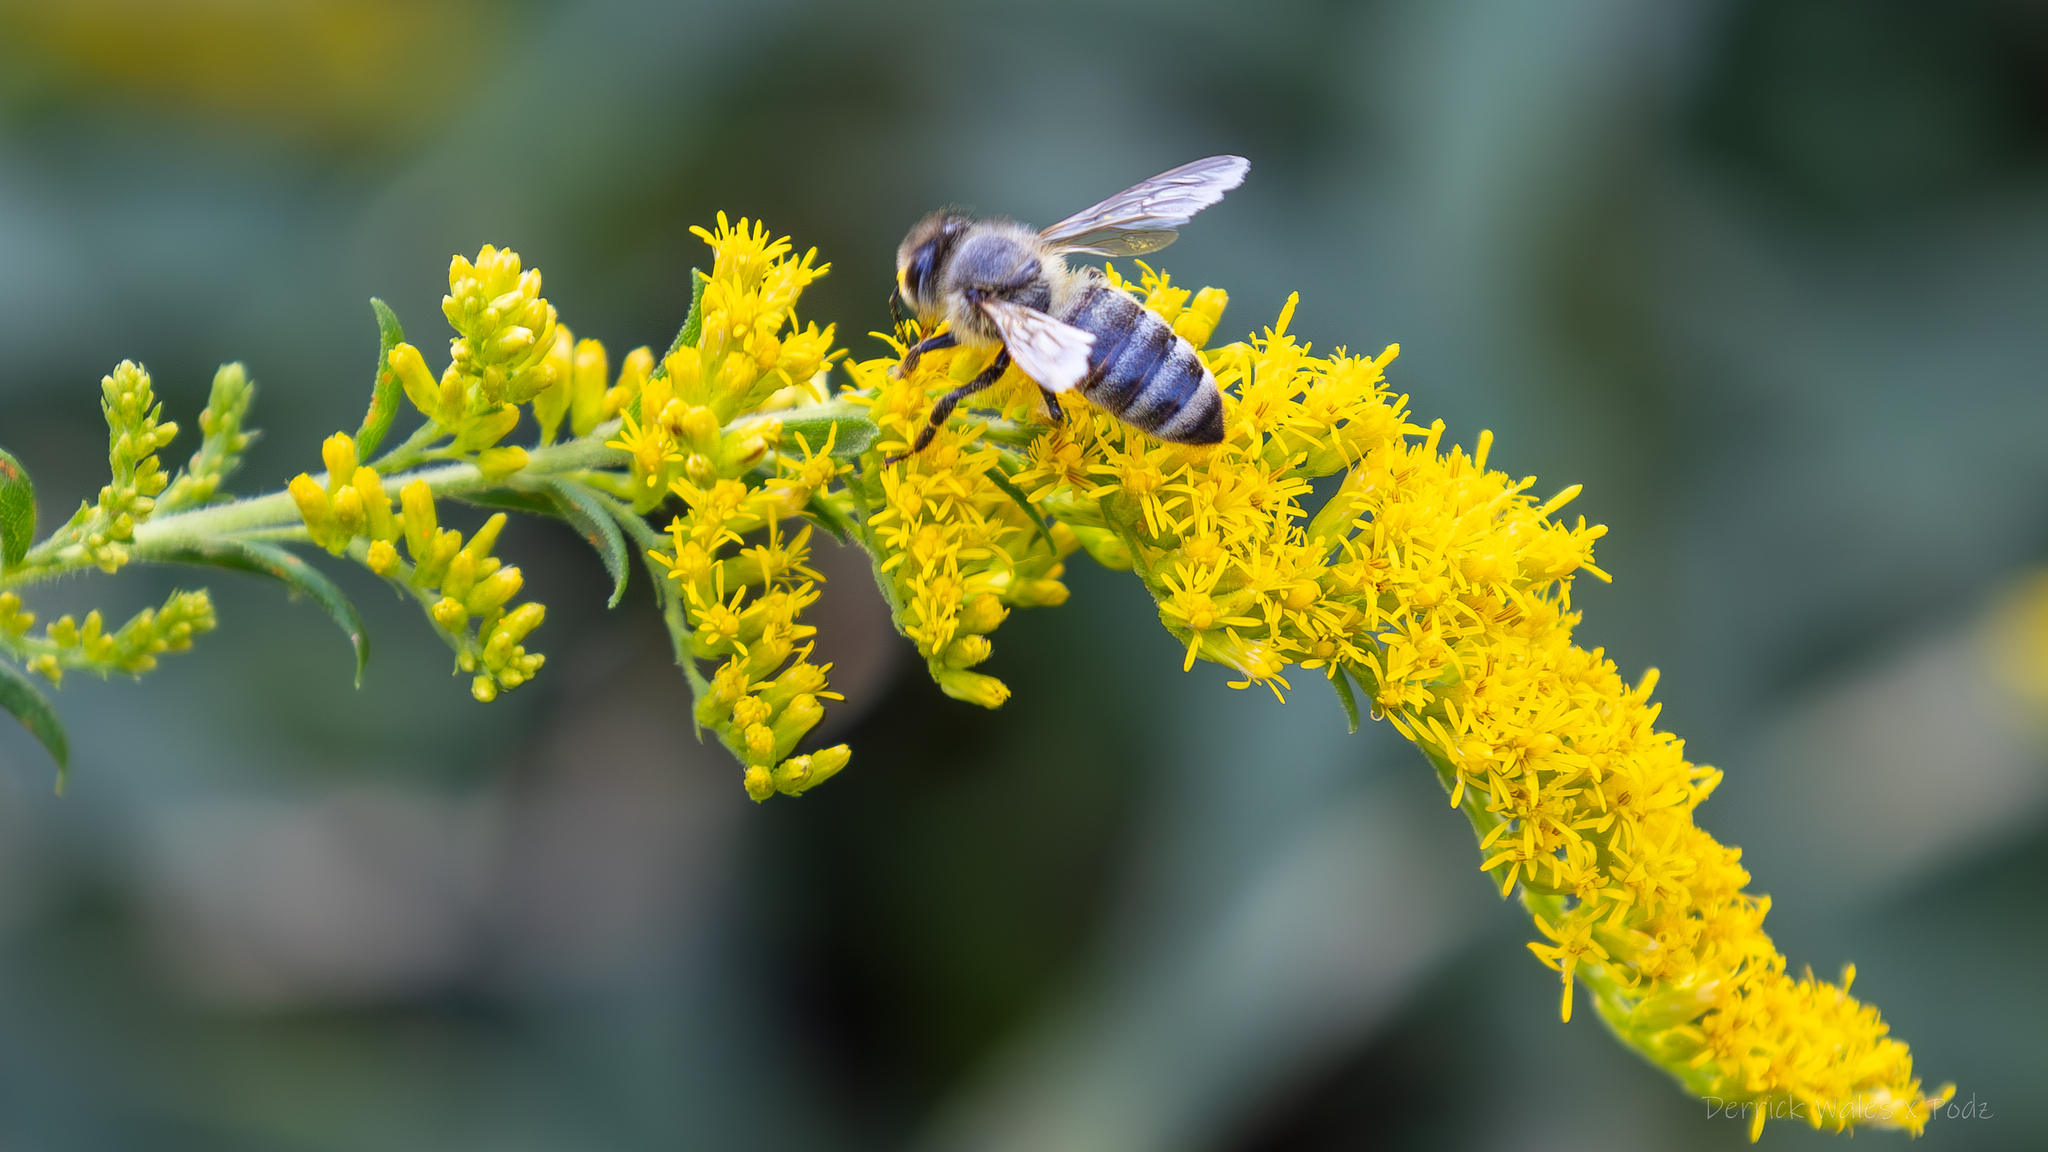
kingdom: Animalia
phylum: Arthropoda
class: Insecta
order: Hymenoptera
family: Apidae
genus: Apis
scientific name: Apis mellifera
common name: Honey bee
